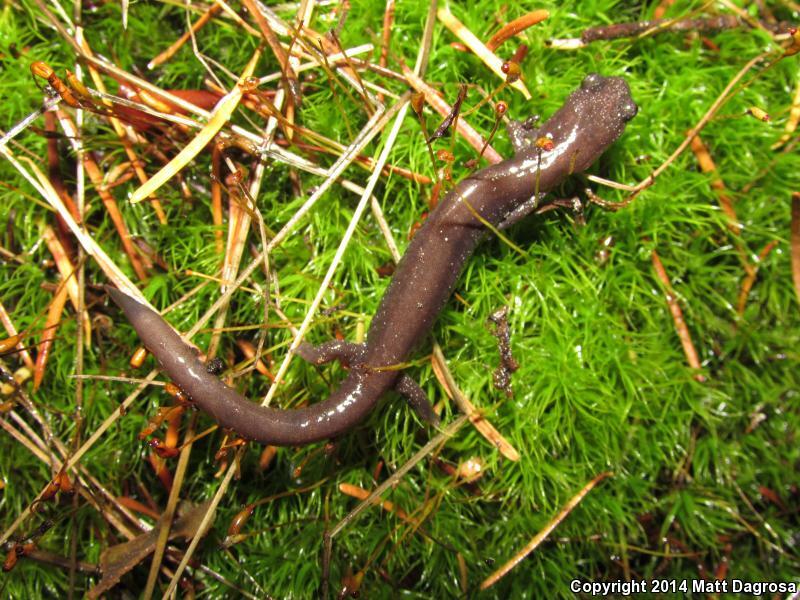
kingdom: Animalia
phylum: Chordata
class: Amphibia
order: Caudata
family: Plethodontidae
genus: Plethodon
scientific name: Plethodon stormi
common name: Siskiyou mountains salamander
